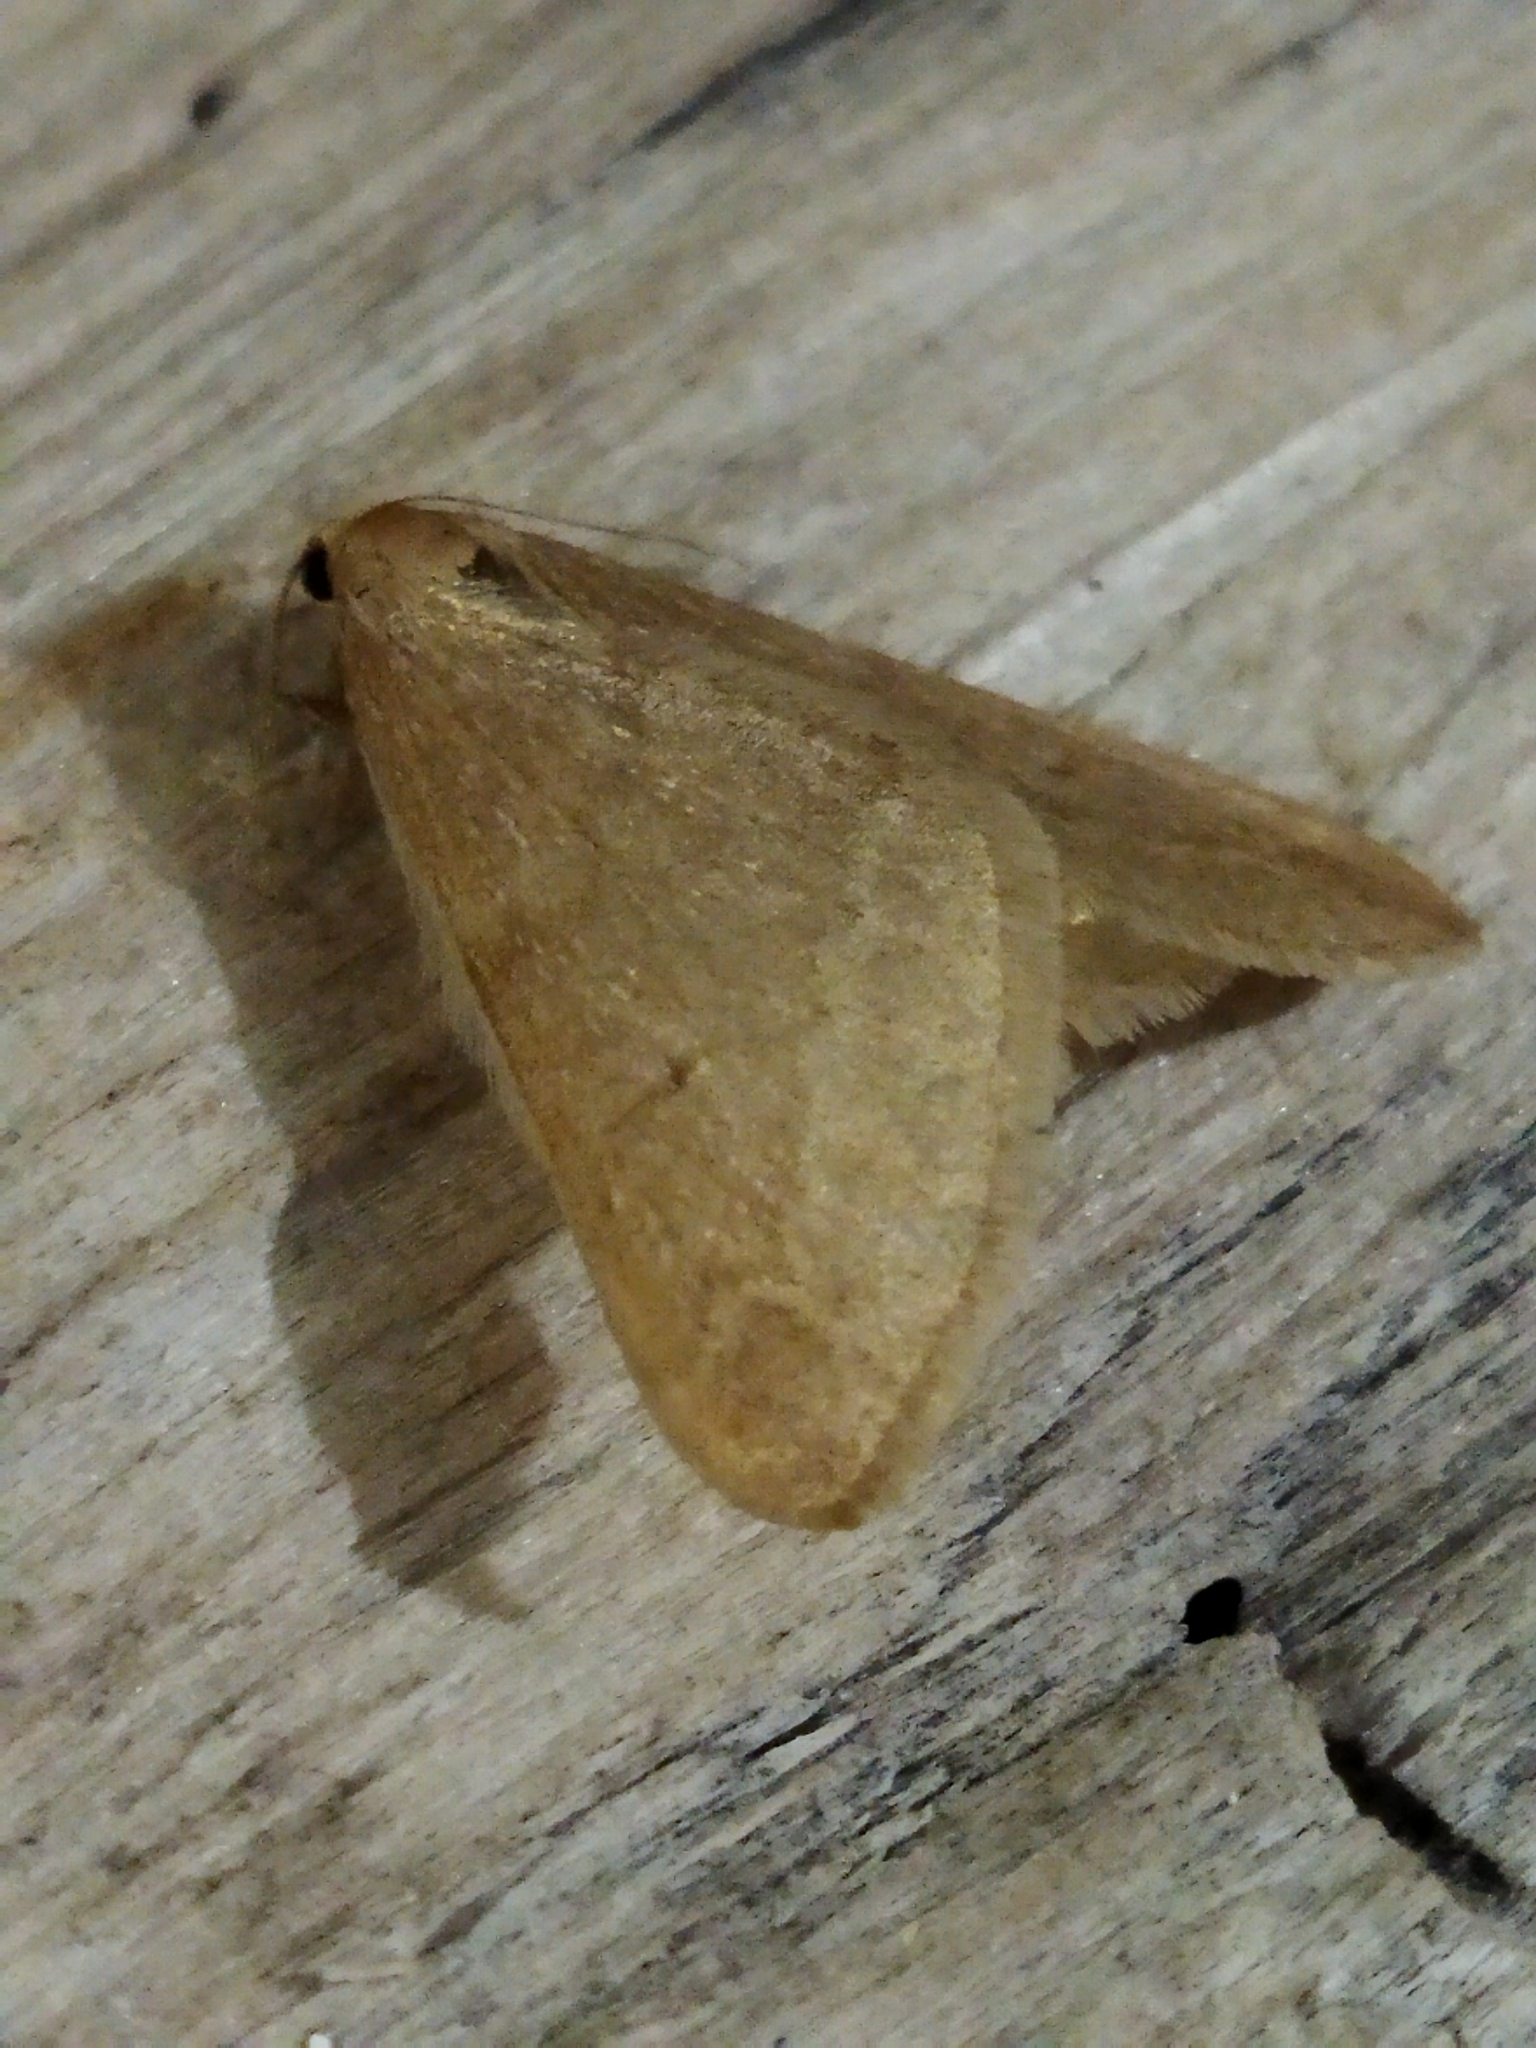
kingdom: Animalia
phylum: Arthropoda
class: Insecta
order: Lepidoptera
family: Geometridae
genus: Alsophila
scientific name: Alsophila aceraria
